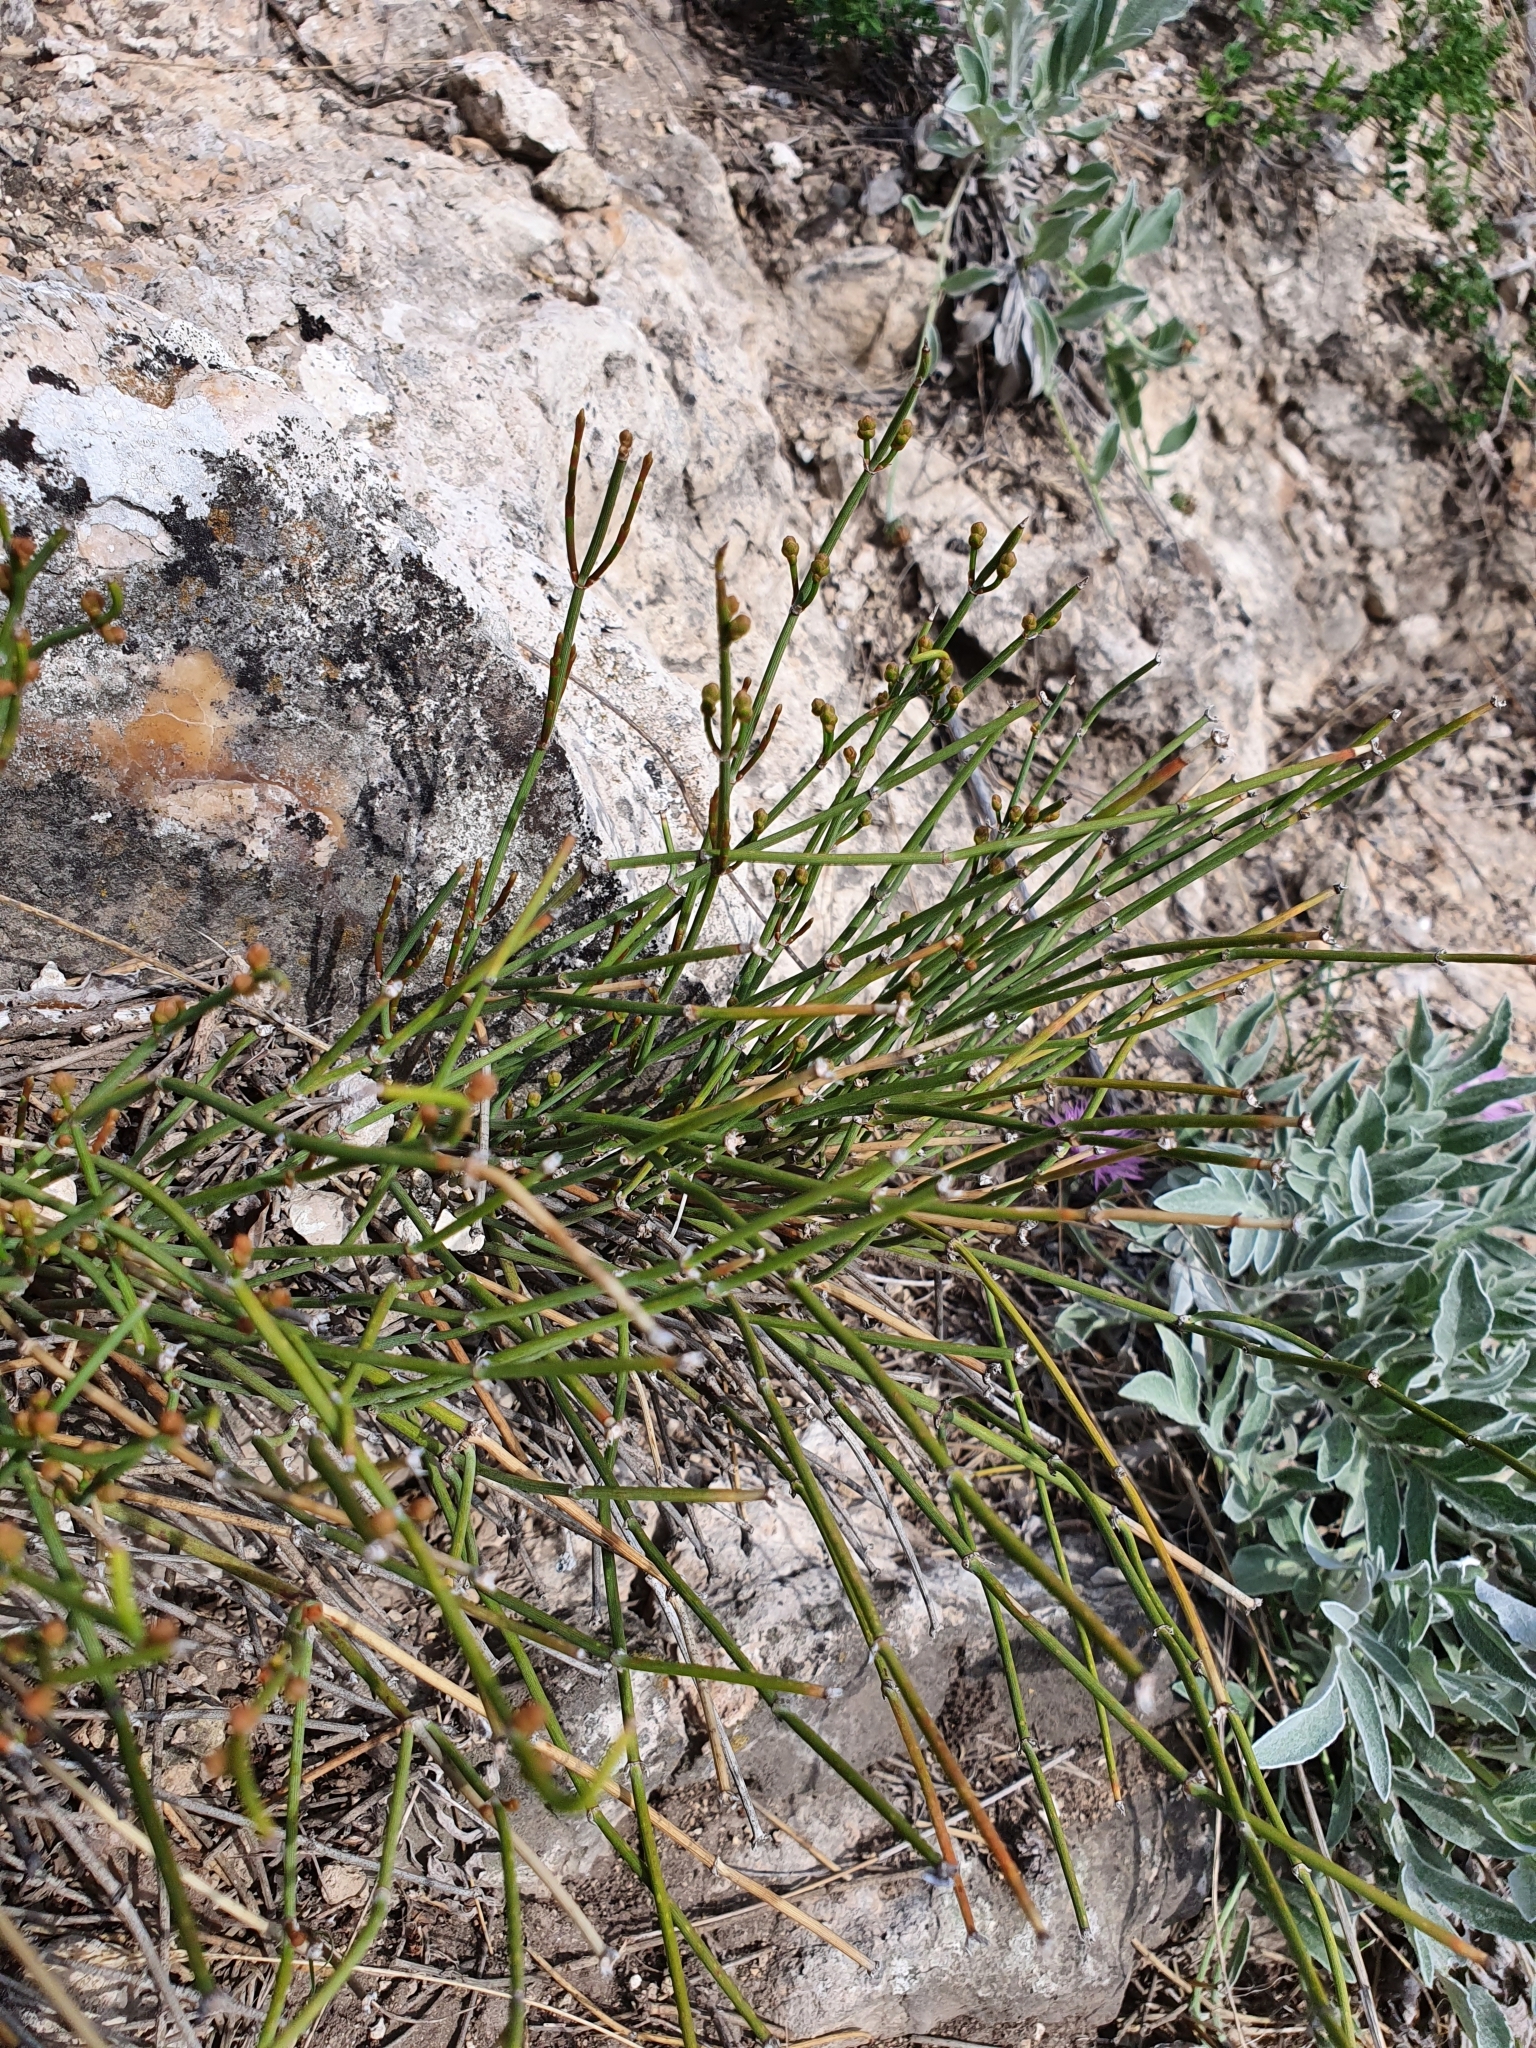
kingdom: Plantae
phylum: Tracheophyta
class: Gnetopsida
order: Ephedrales
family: Ephedraceae
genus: Ephedra
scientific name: Ephedra distachya
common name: Sea grape
